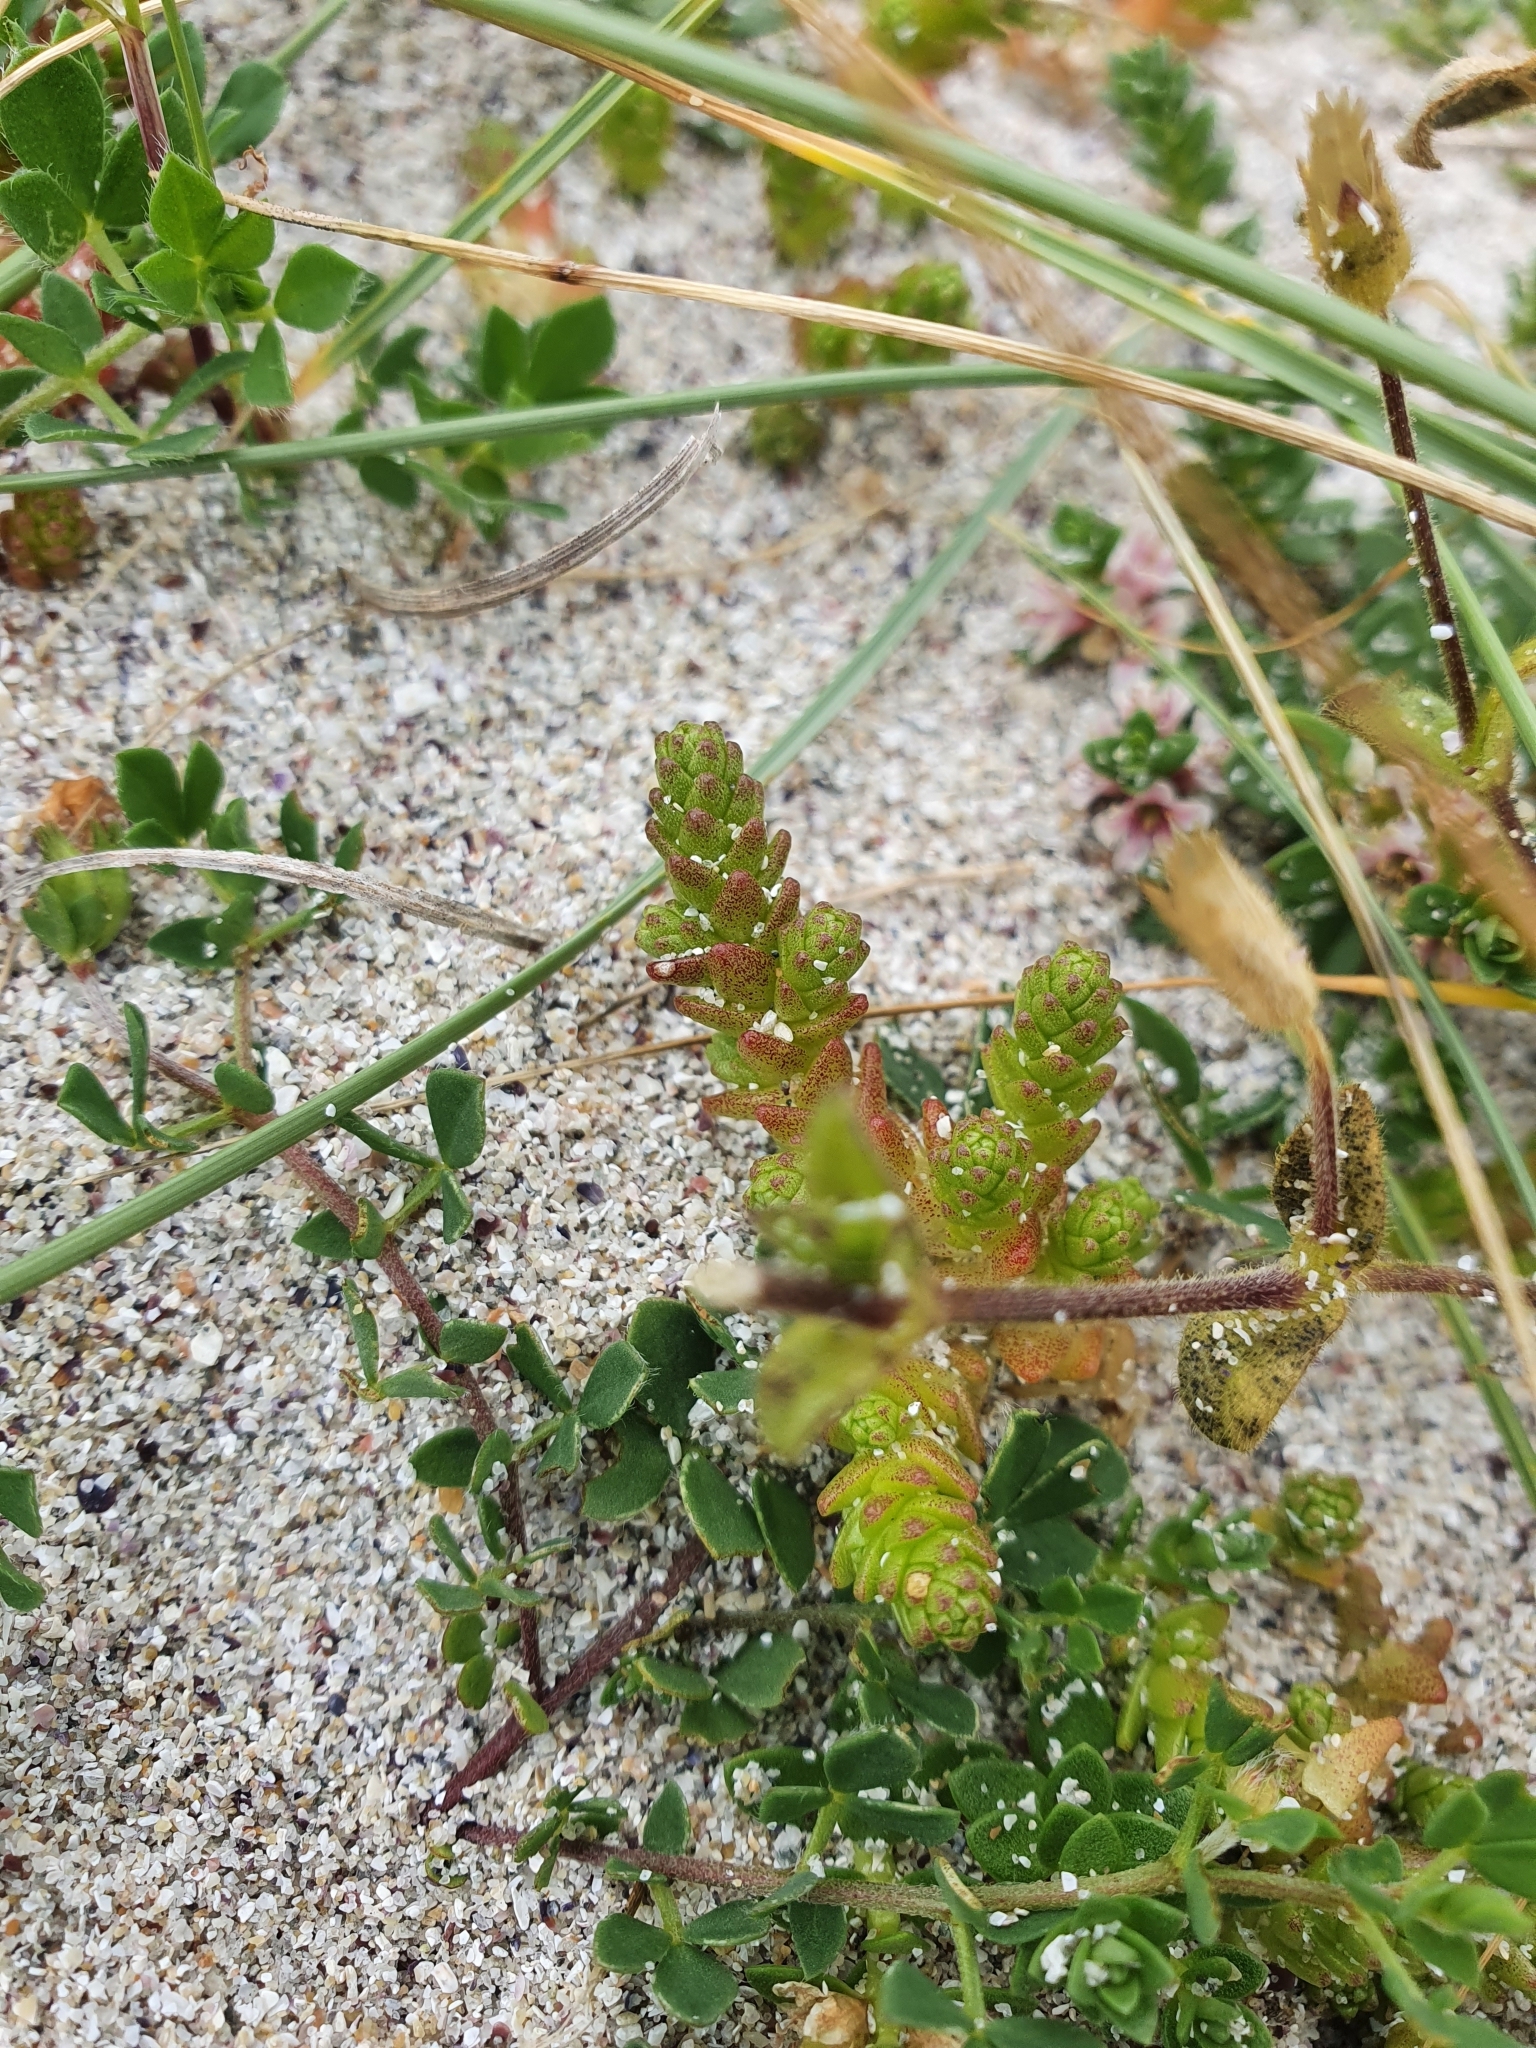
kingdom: Plantae
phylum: Tracheophyta
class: Magnoliopsida
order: Saxifragales
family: Crassulaceae
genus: Sedum
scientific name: Sedum acre
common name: Biting stonecrop
